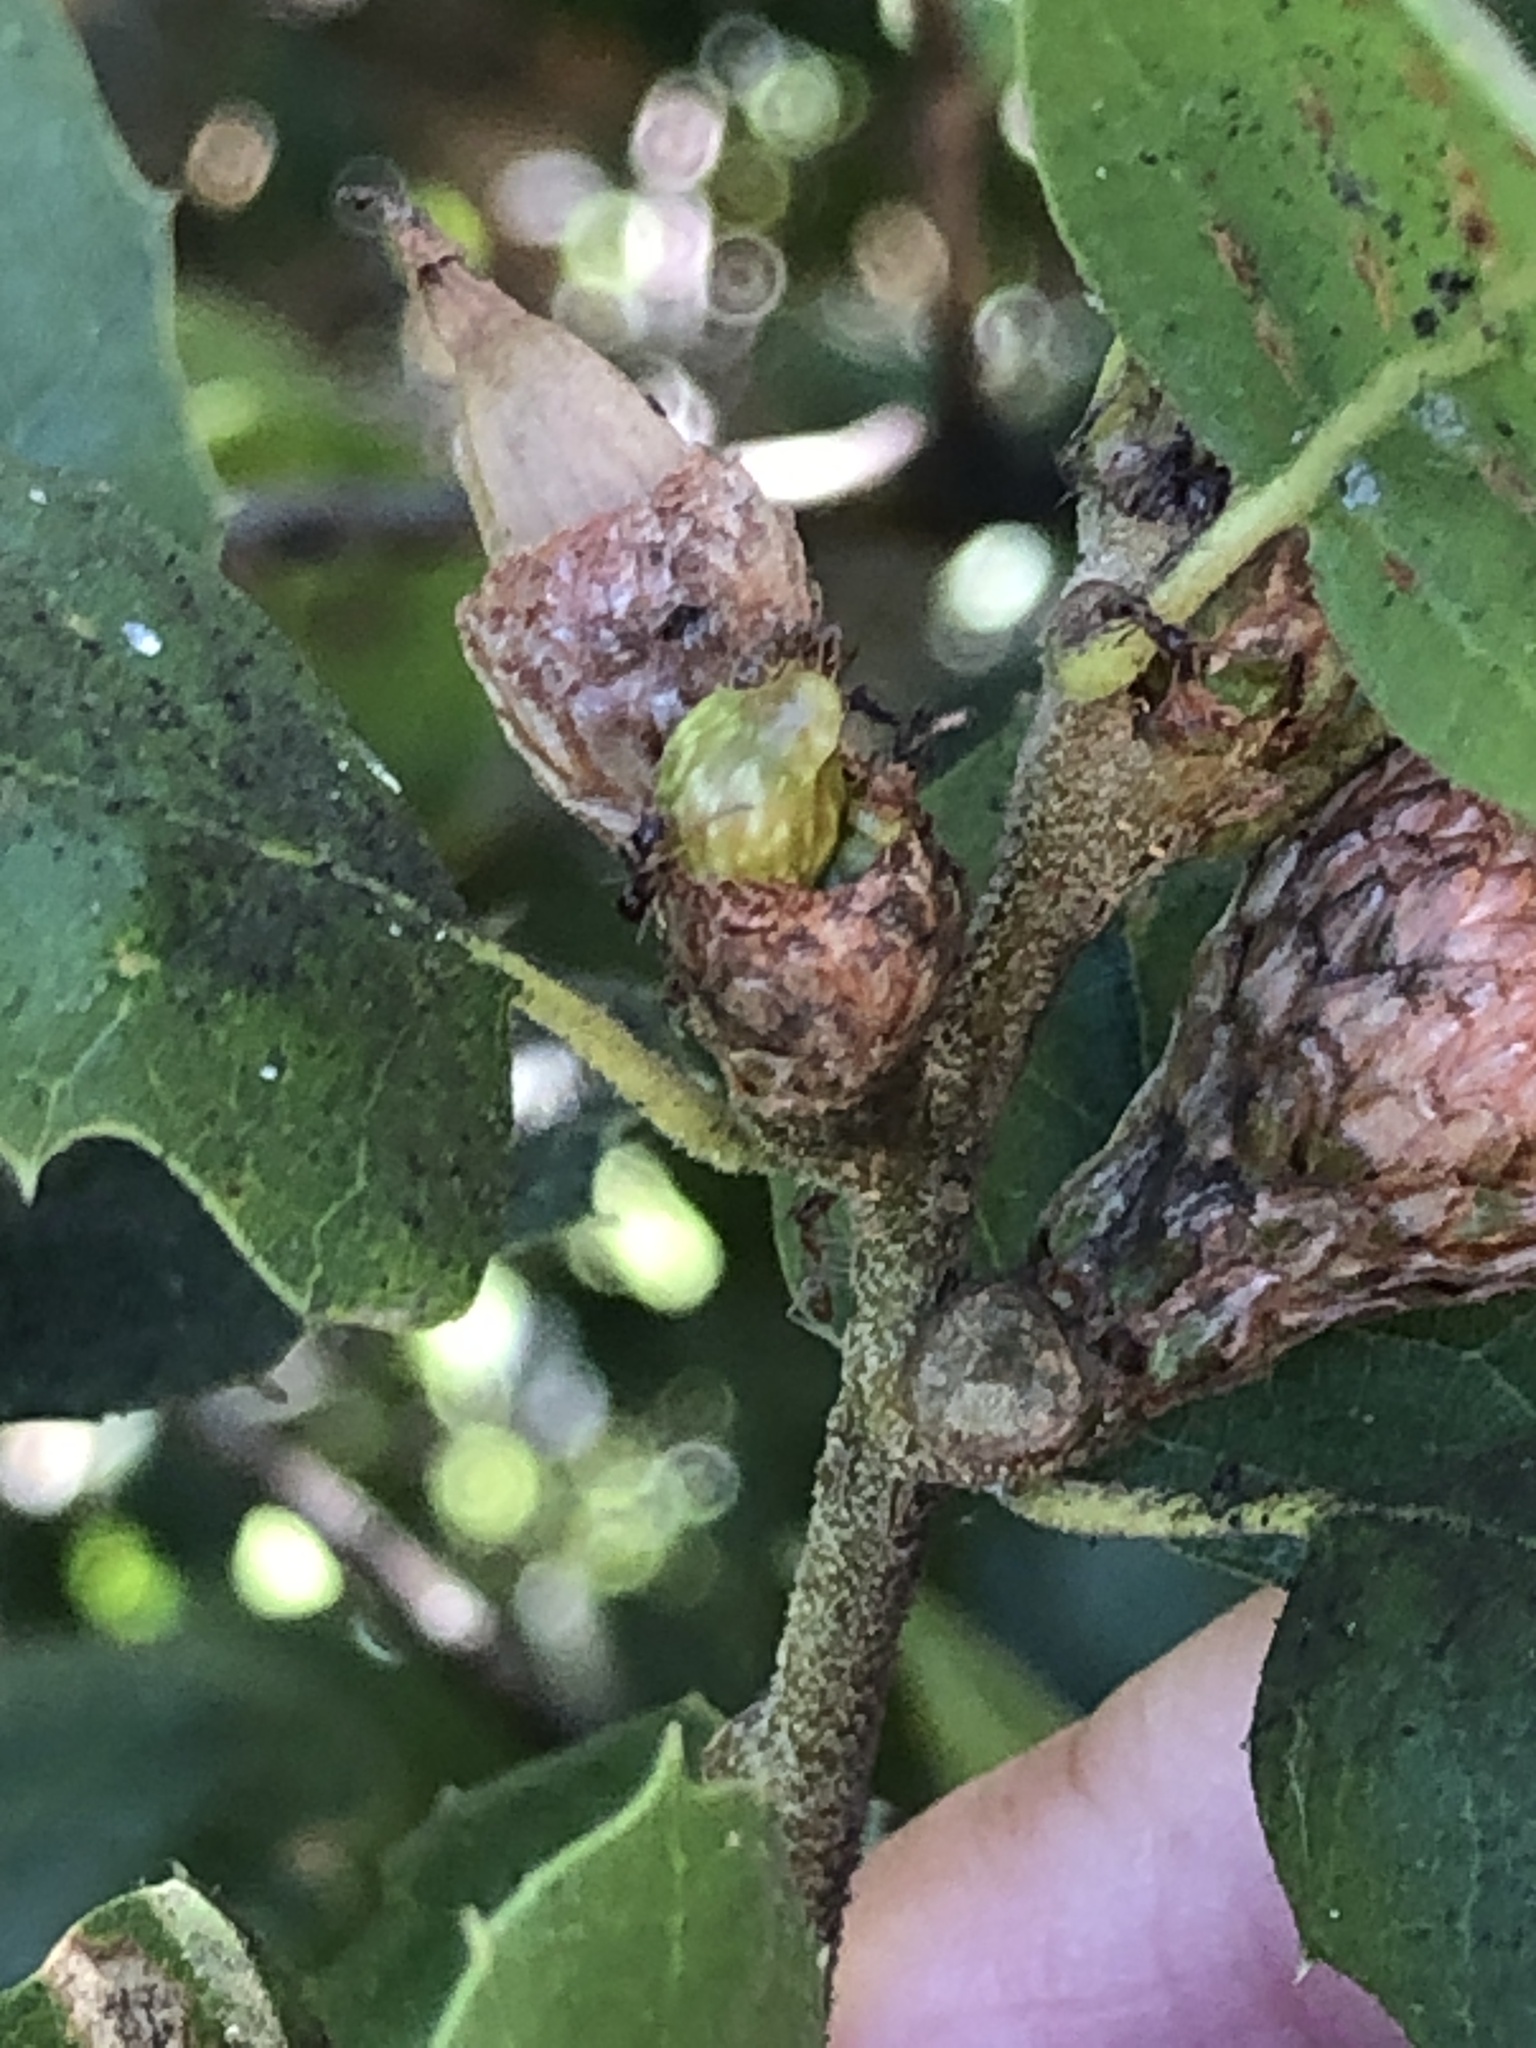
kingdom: Animalia
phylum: Arthropoda
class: Insecta
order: Hymenoptera
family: Cynipidae
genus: Callirhytis
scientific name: Callirhytis
